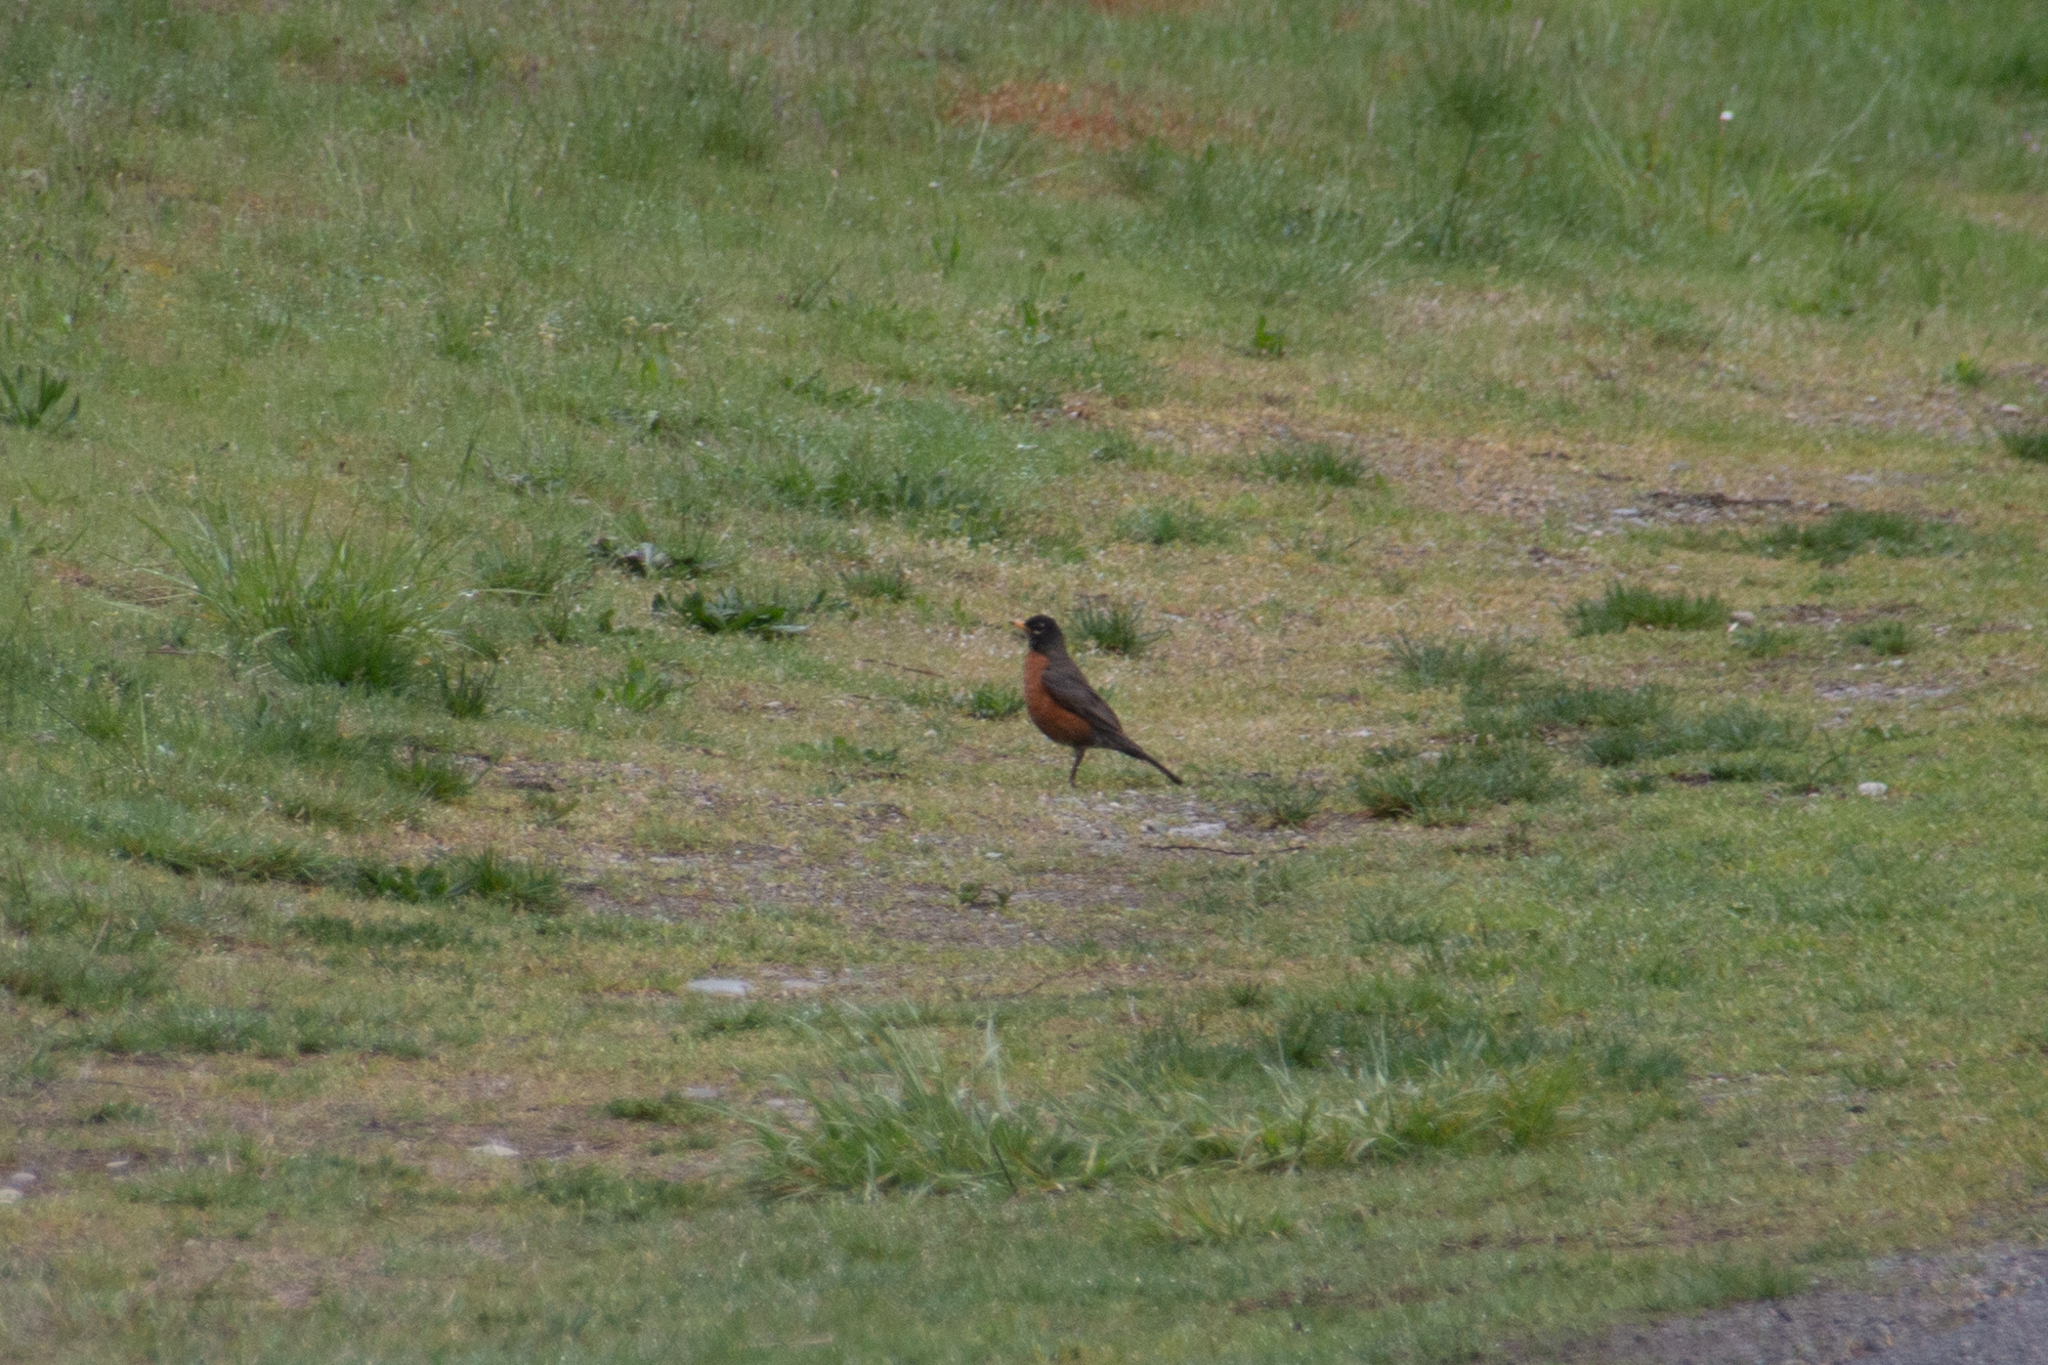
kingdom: Animalia
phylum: Chordata
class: Aves
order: Passeriformes
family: Turdidae
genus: Turdus
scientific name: Turdus migratorius
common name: American robin
